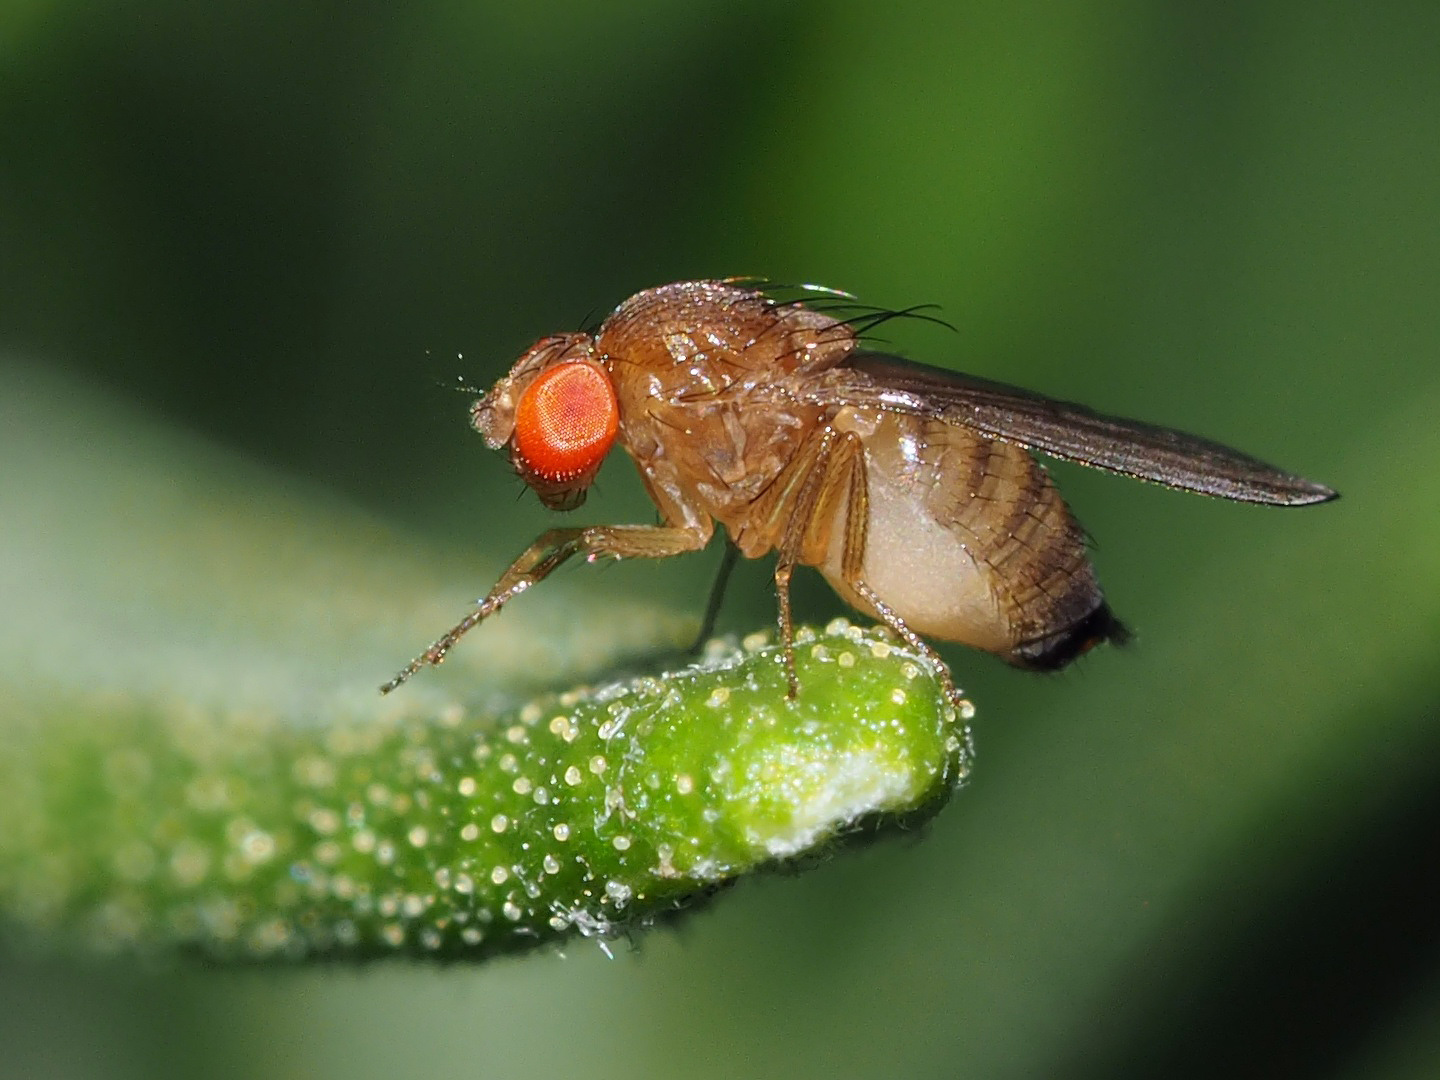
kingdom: Animalia
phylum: Arthropoda
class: Insecta
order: Diptera
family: Drosophilidae
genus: Drosophila
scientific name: Drosophila suzukii
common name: Spotted-wing drosophila
